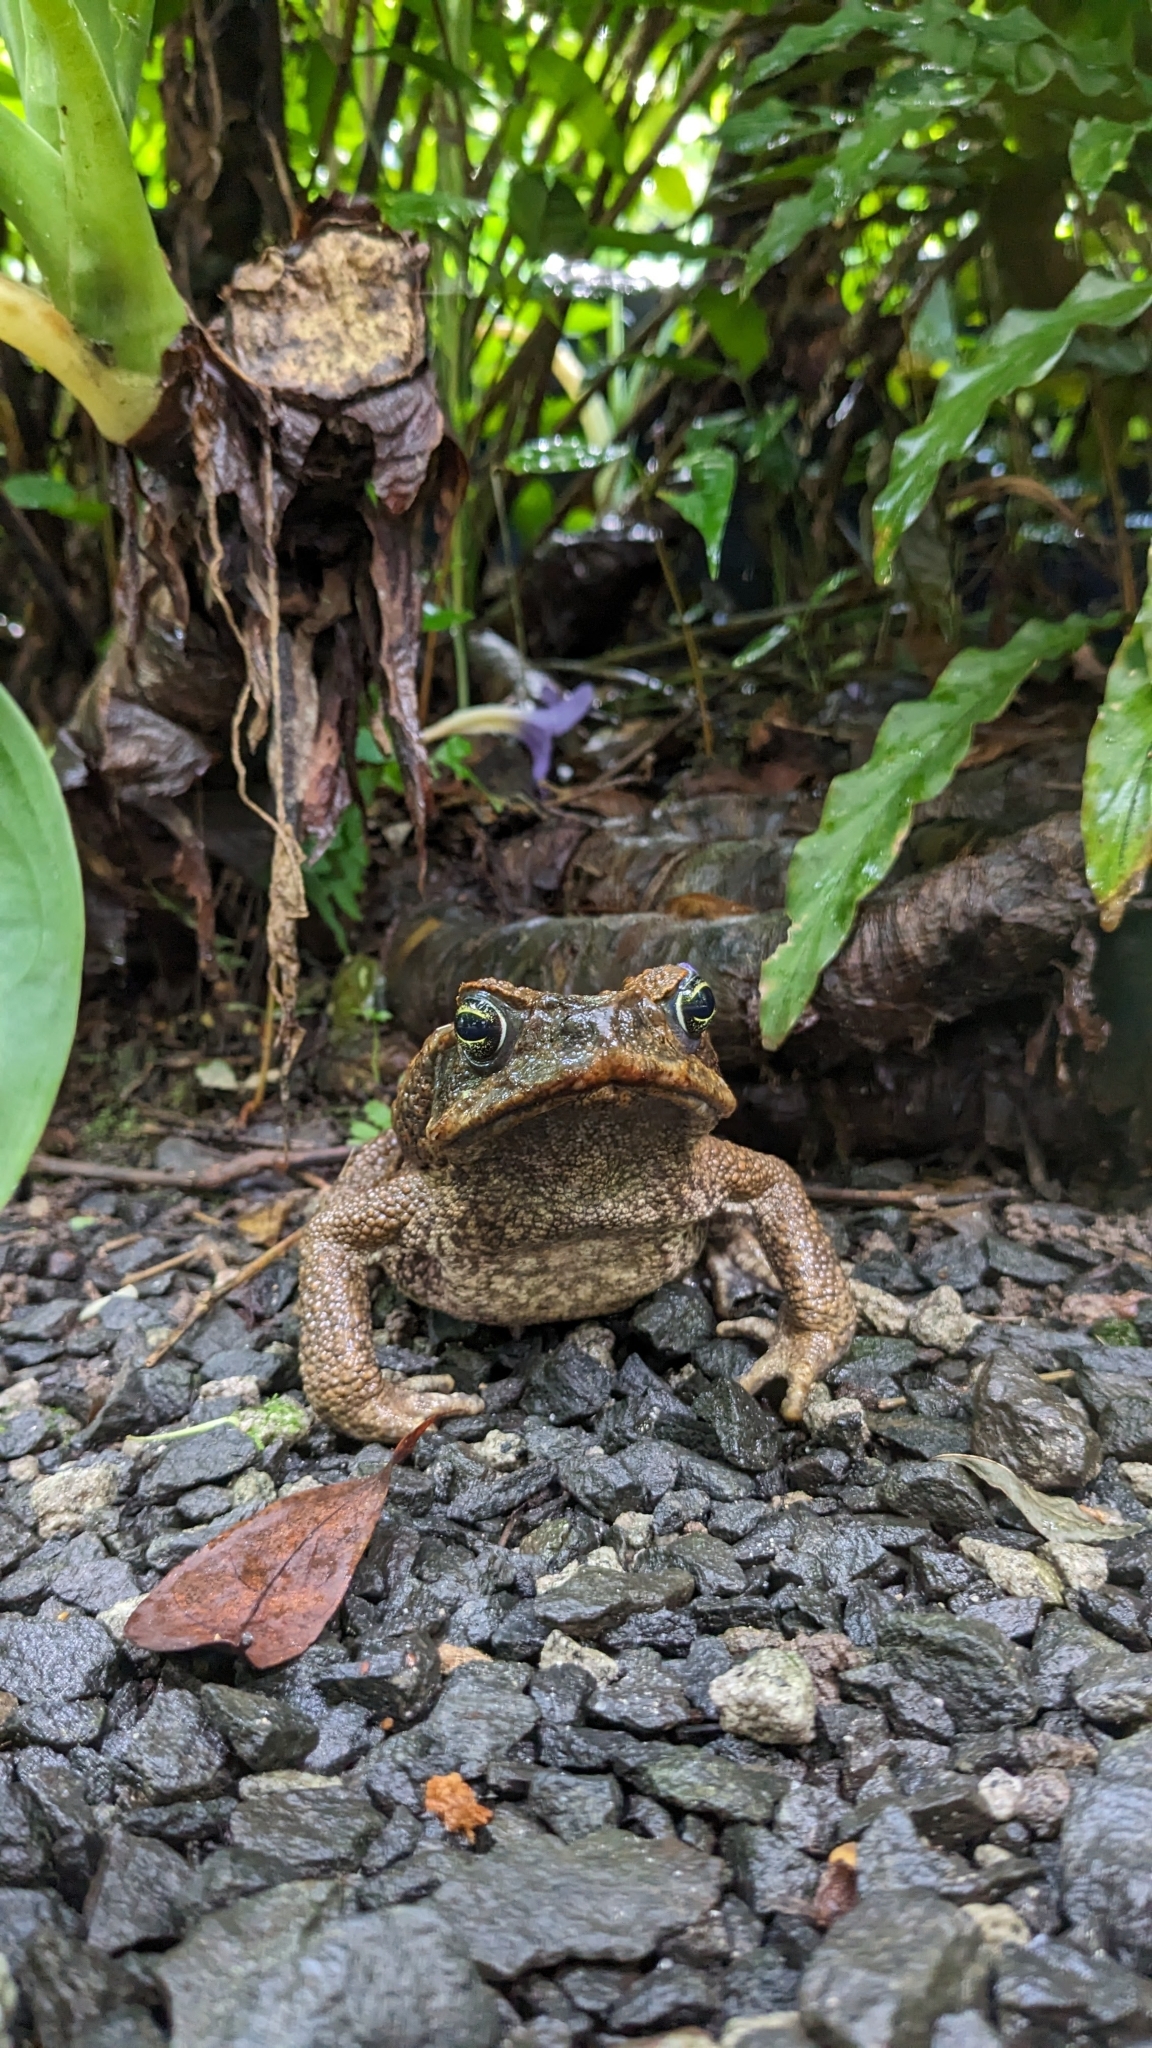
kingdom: Animalia
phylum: Chordata
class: Amphibia
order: Anura
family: Bufonidae
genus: Rhinella
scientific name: Rhinella marina
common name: Cane toad
